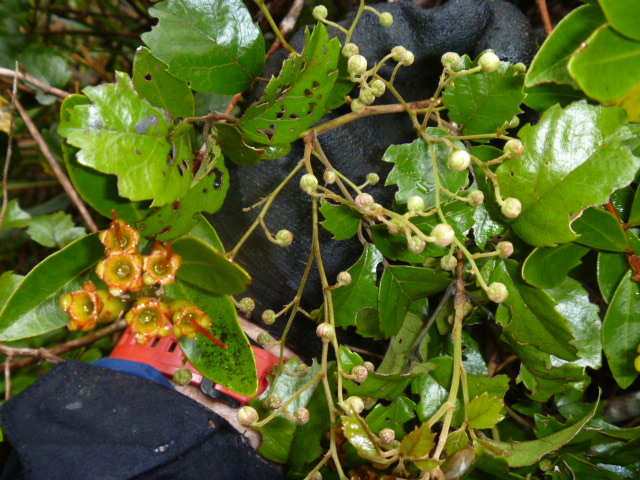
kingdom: Plantae
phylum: Tracheophyta
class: Magnoliopsida
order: Rosales
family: Rosaceae
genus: Rubus
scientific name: Rubus australis
